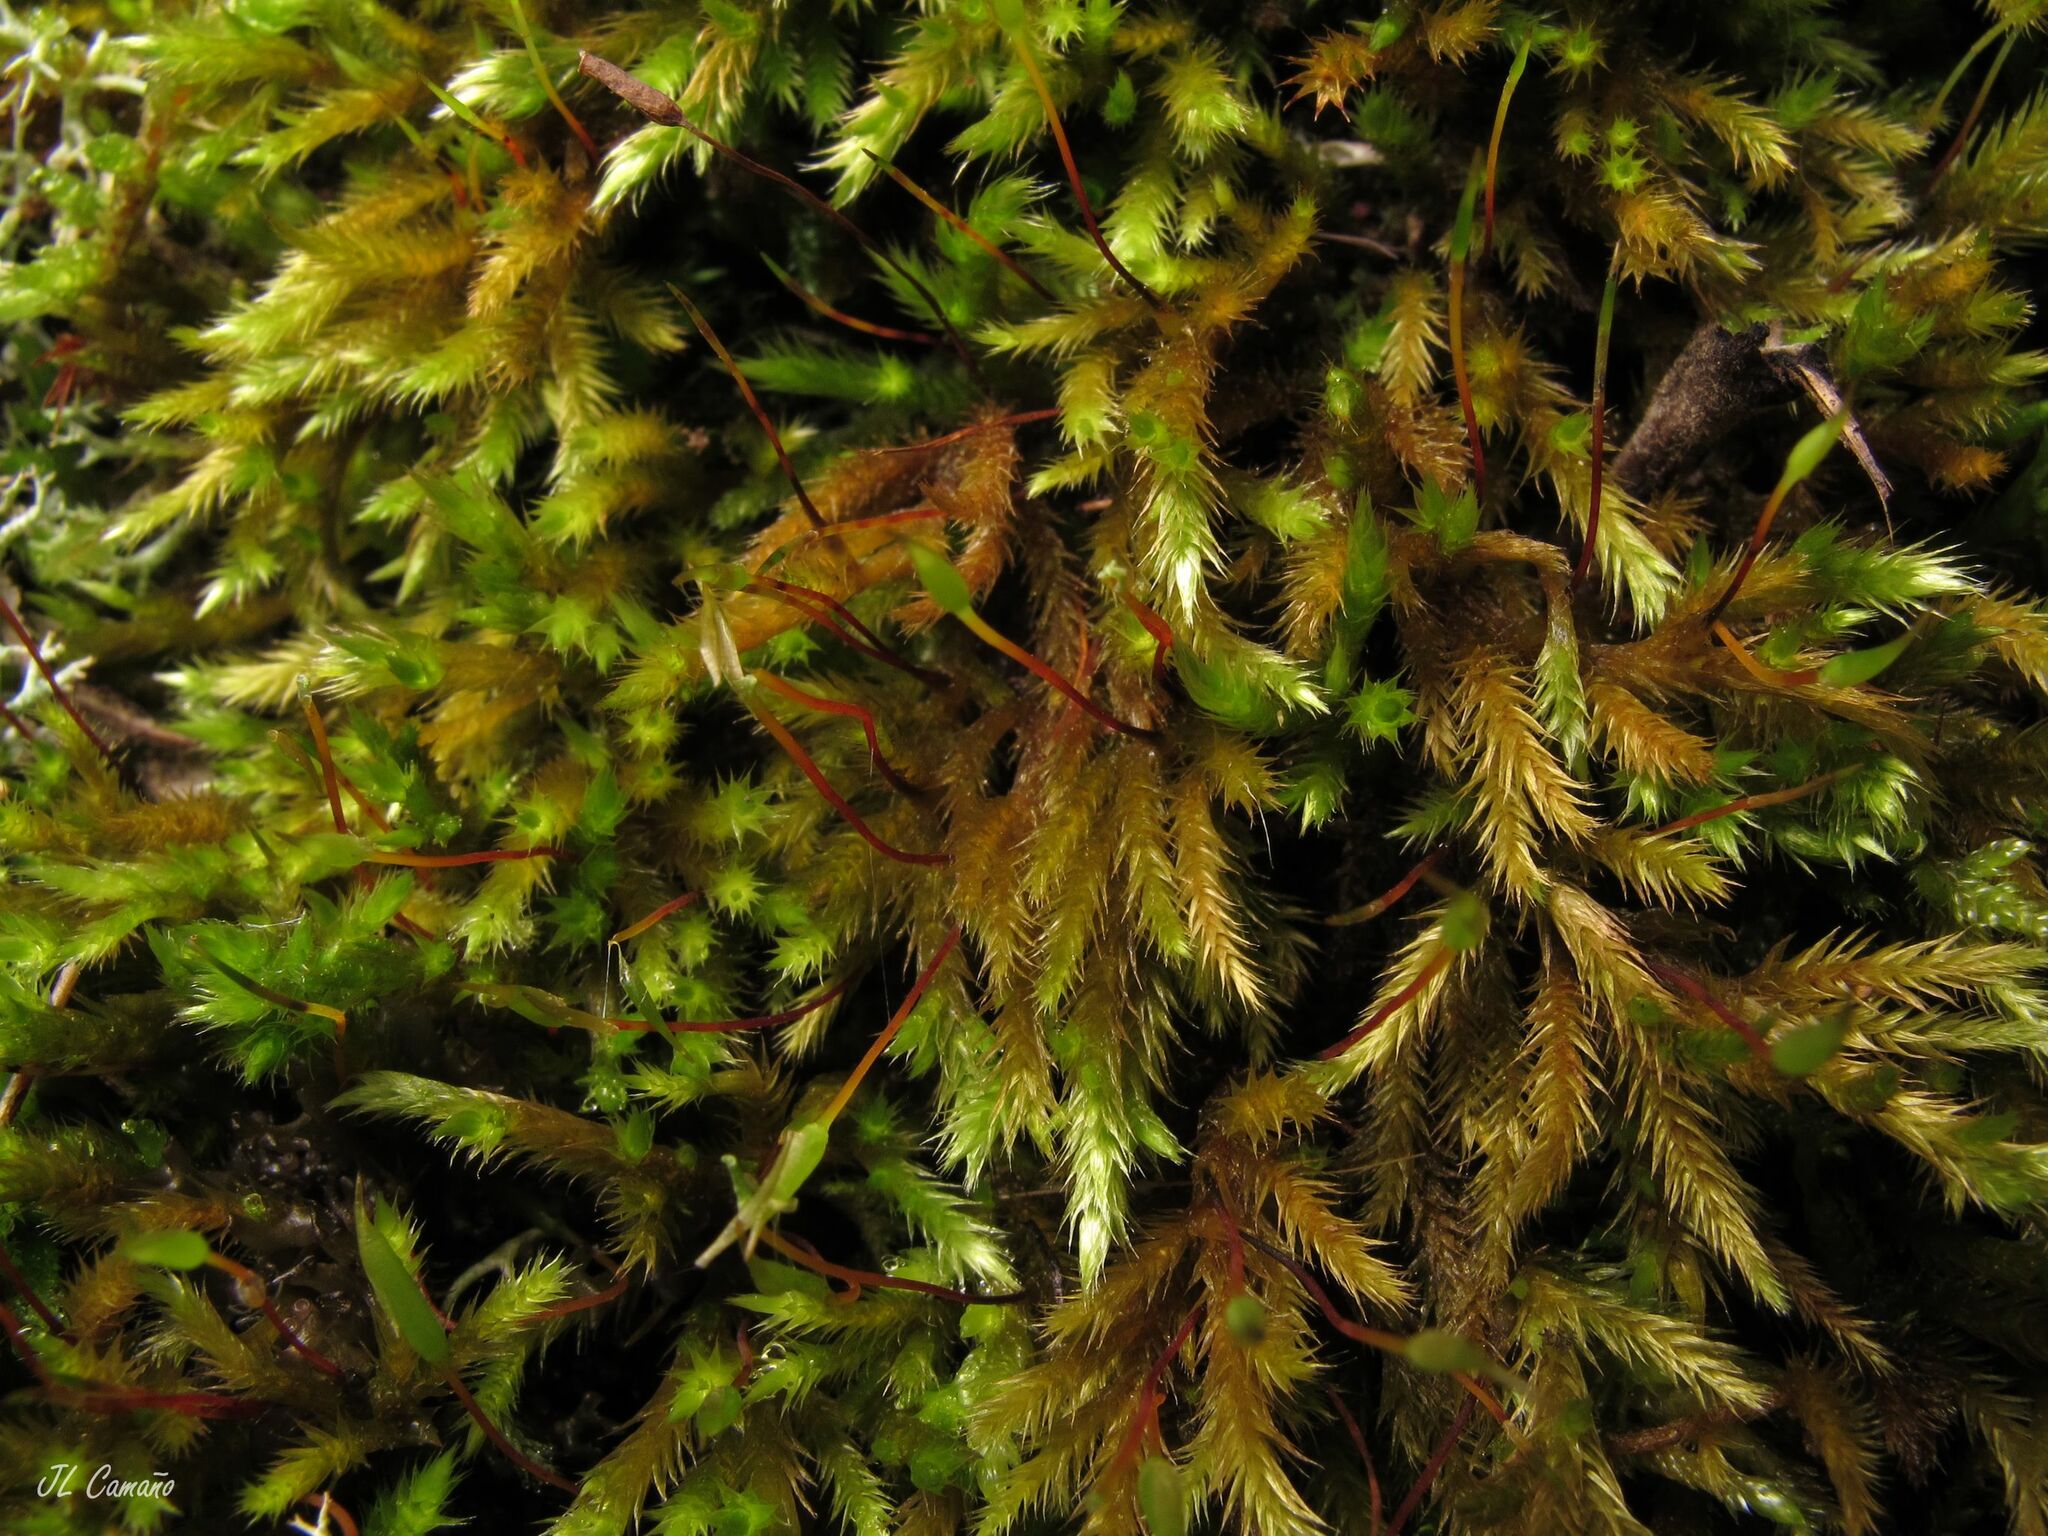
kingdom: Plantae
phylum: Bryophyta
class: Bryopsida
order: Hypnales
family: Brachytheciaceae
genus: Homalothecium
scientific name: Homalothecium lutescens
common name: Yellow feather-moss
